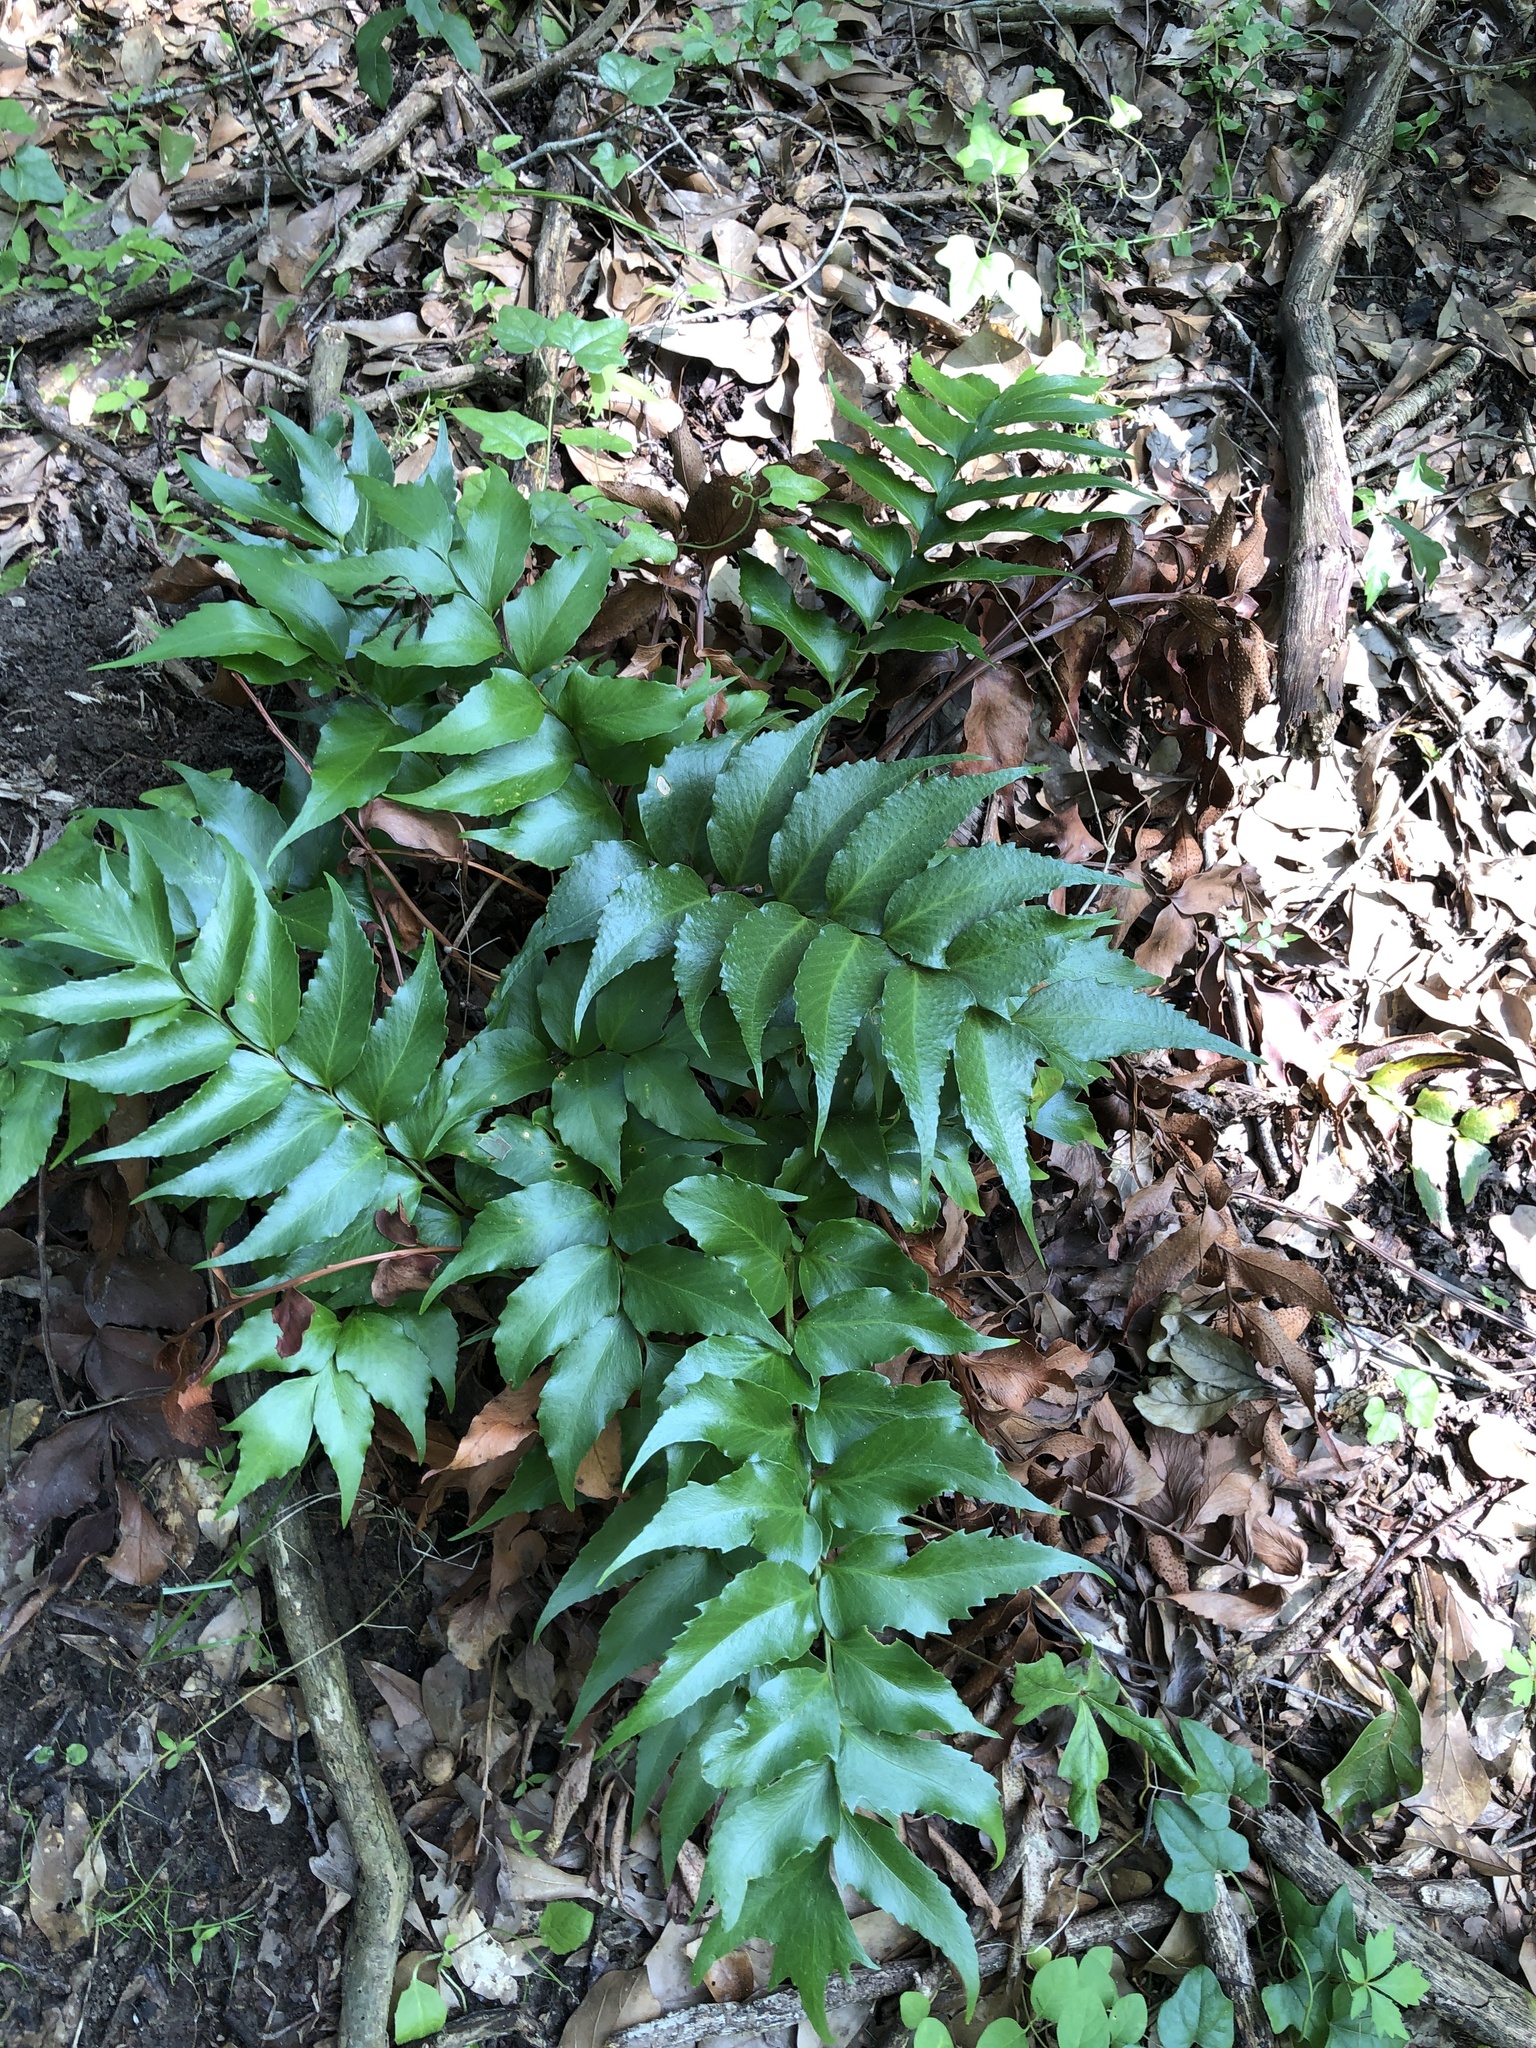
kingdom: Plantae
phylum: Tracheophyta
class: Polypodiopsida
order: Polypodiales
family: Dryopteridaceae
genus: Cyrtomium
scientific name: Cyrtomium falcatum
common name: House holly-fern
